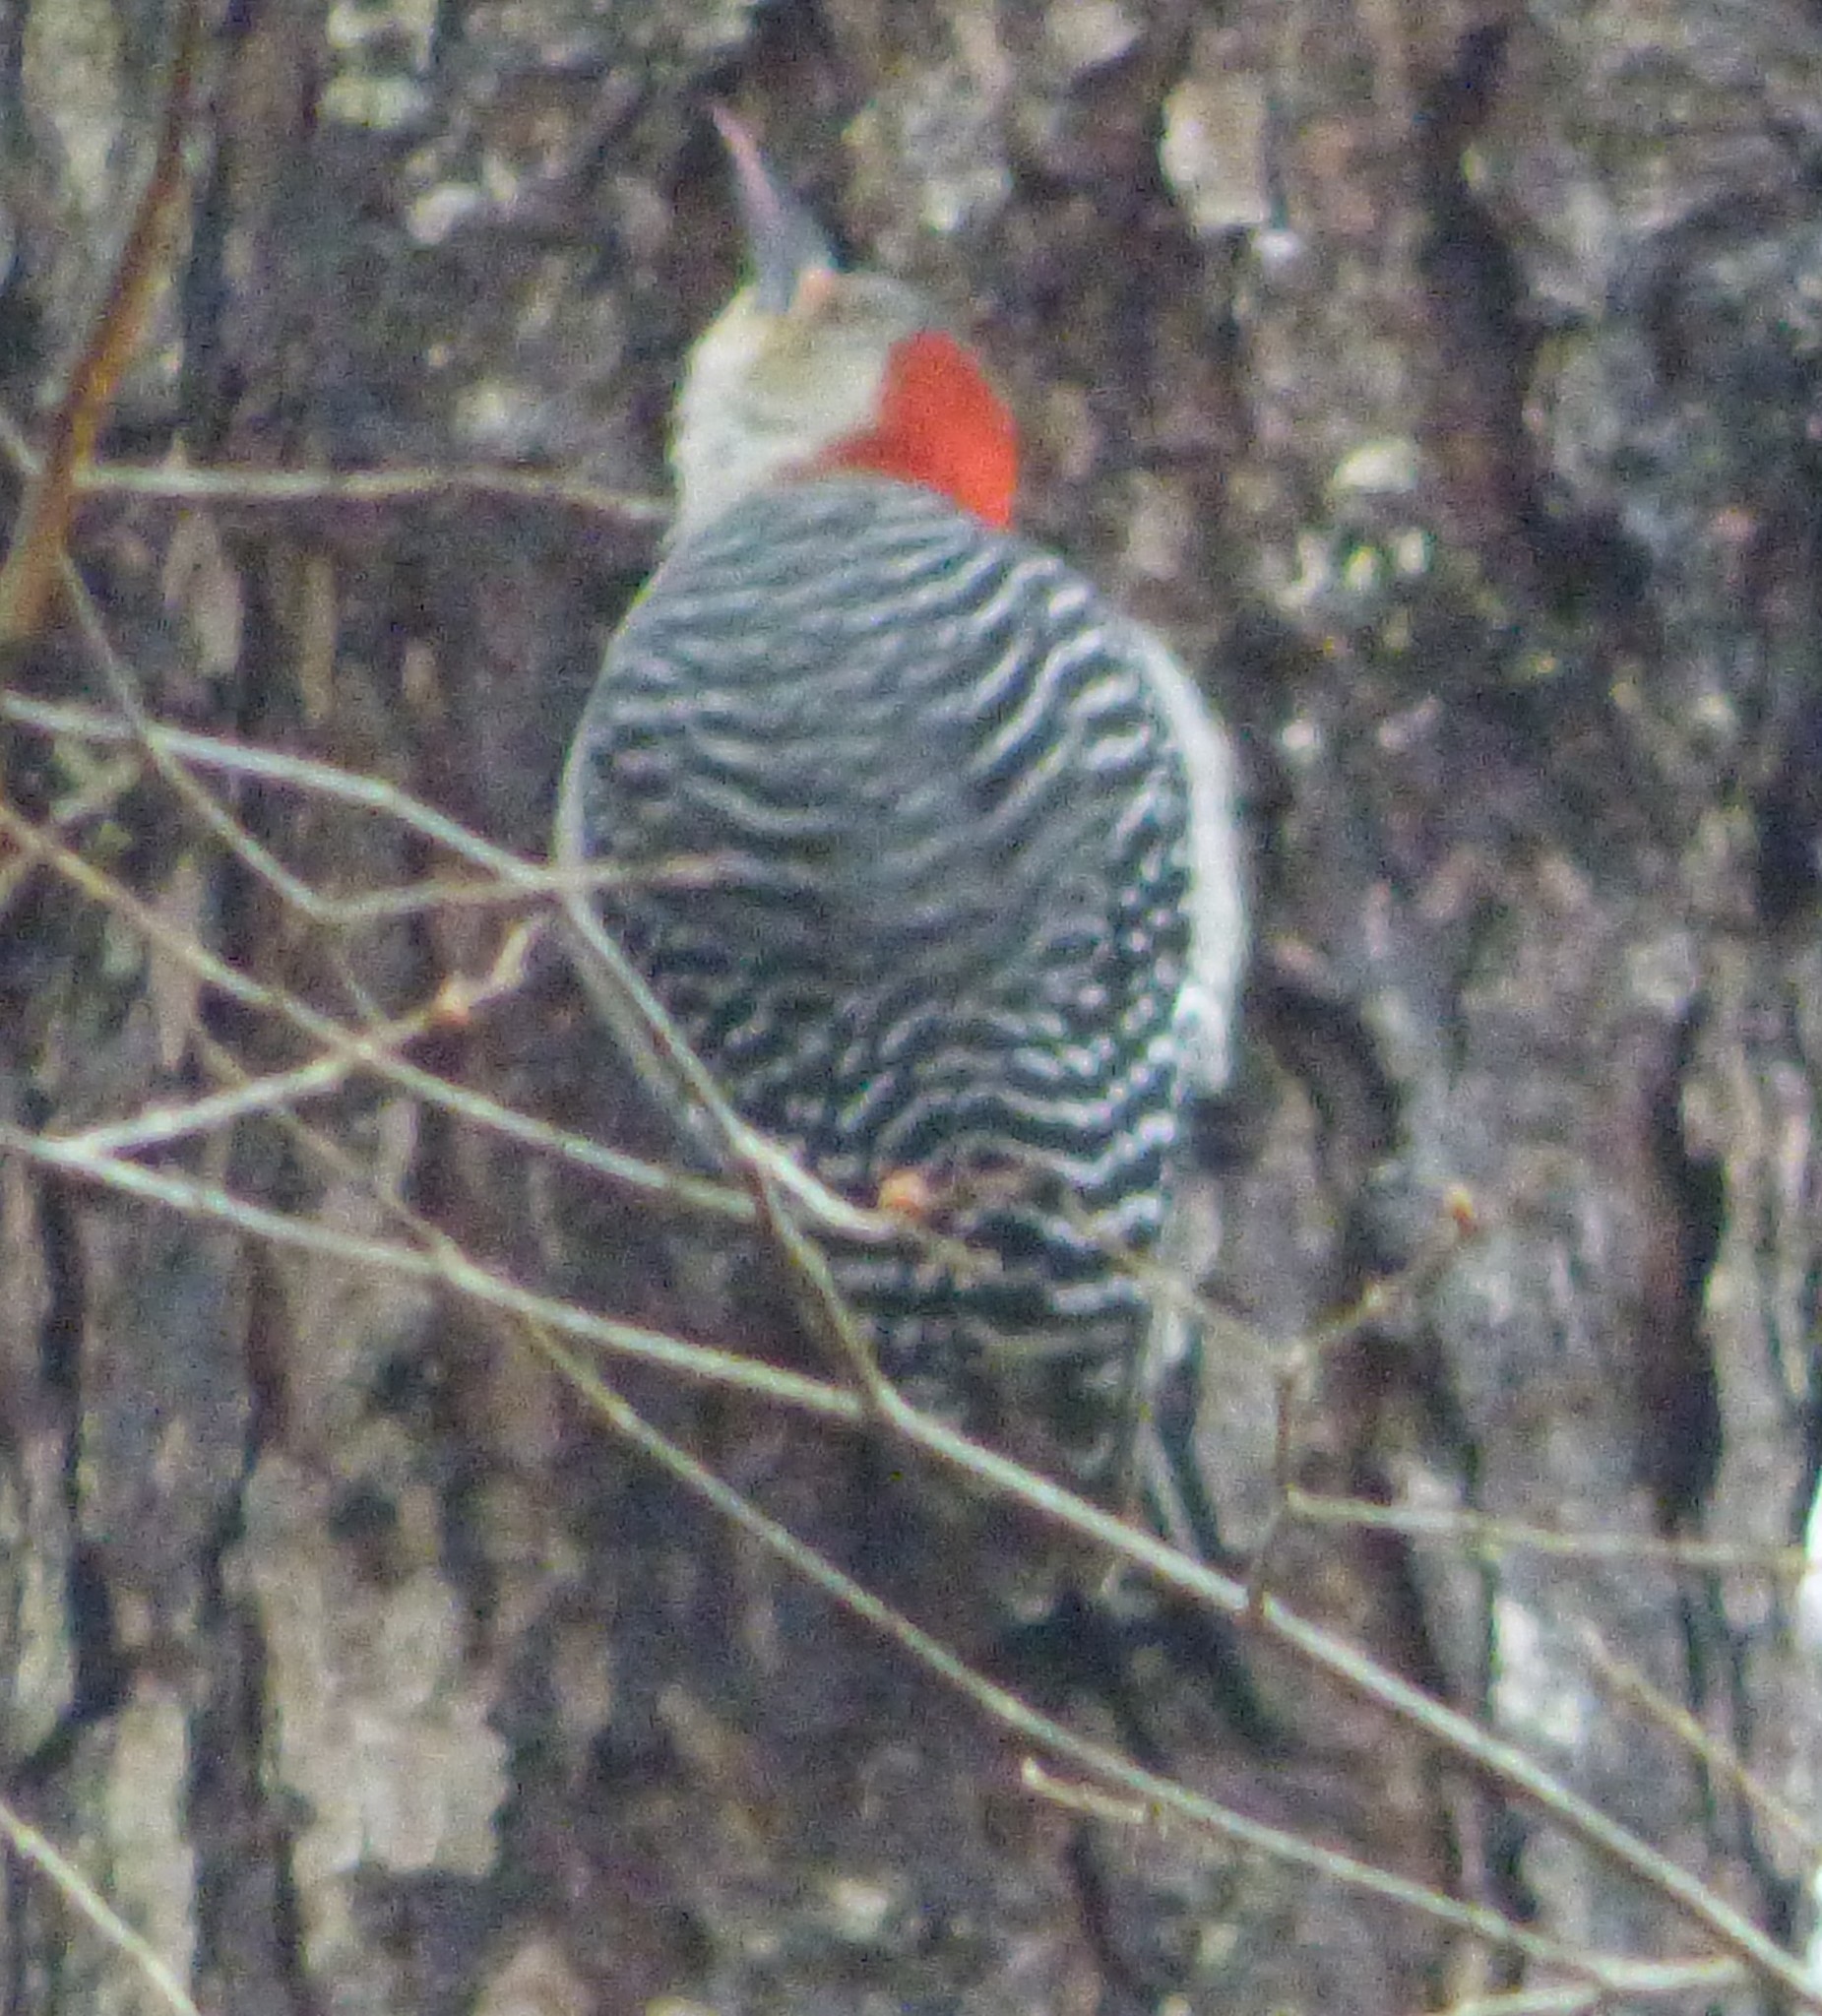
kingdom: Animalia
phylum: Chordata
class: Aves
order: Piciformes
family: Picidae
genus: Melanerpes
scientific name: Melanerpes carolinus
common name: Red-bellied woodpecker
